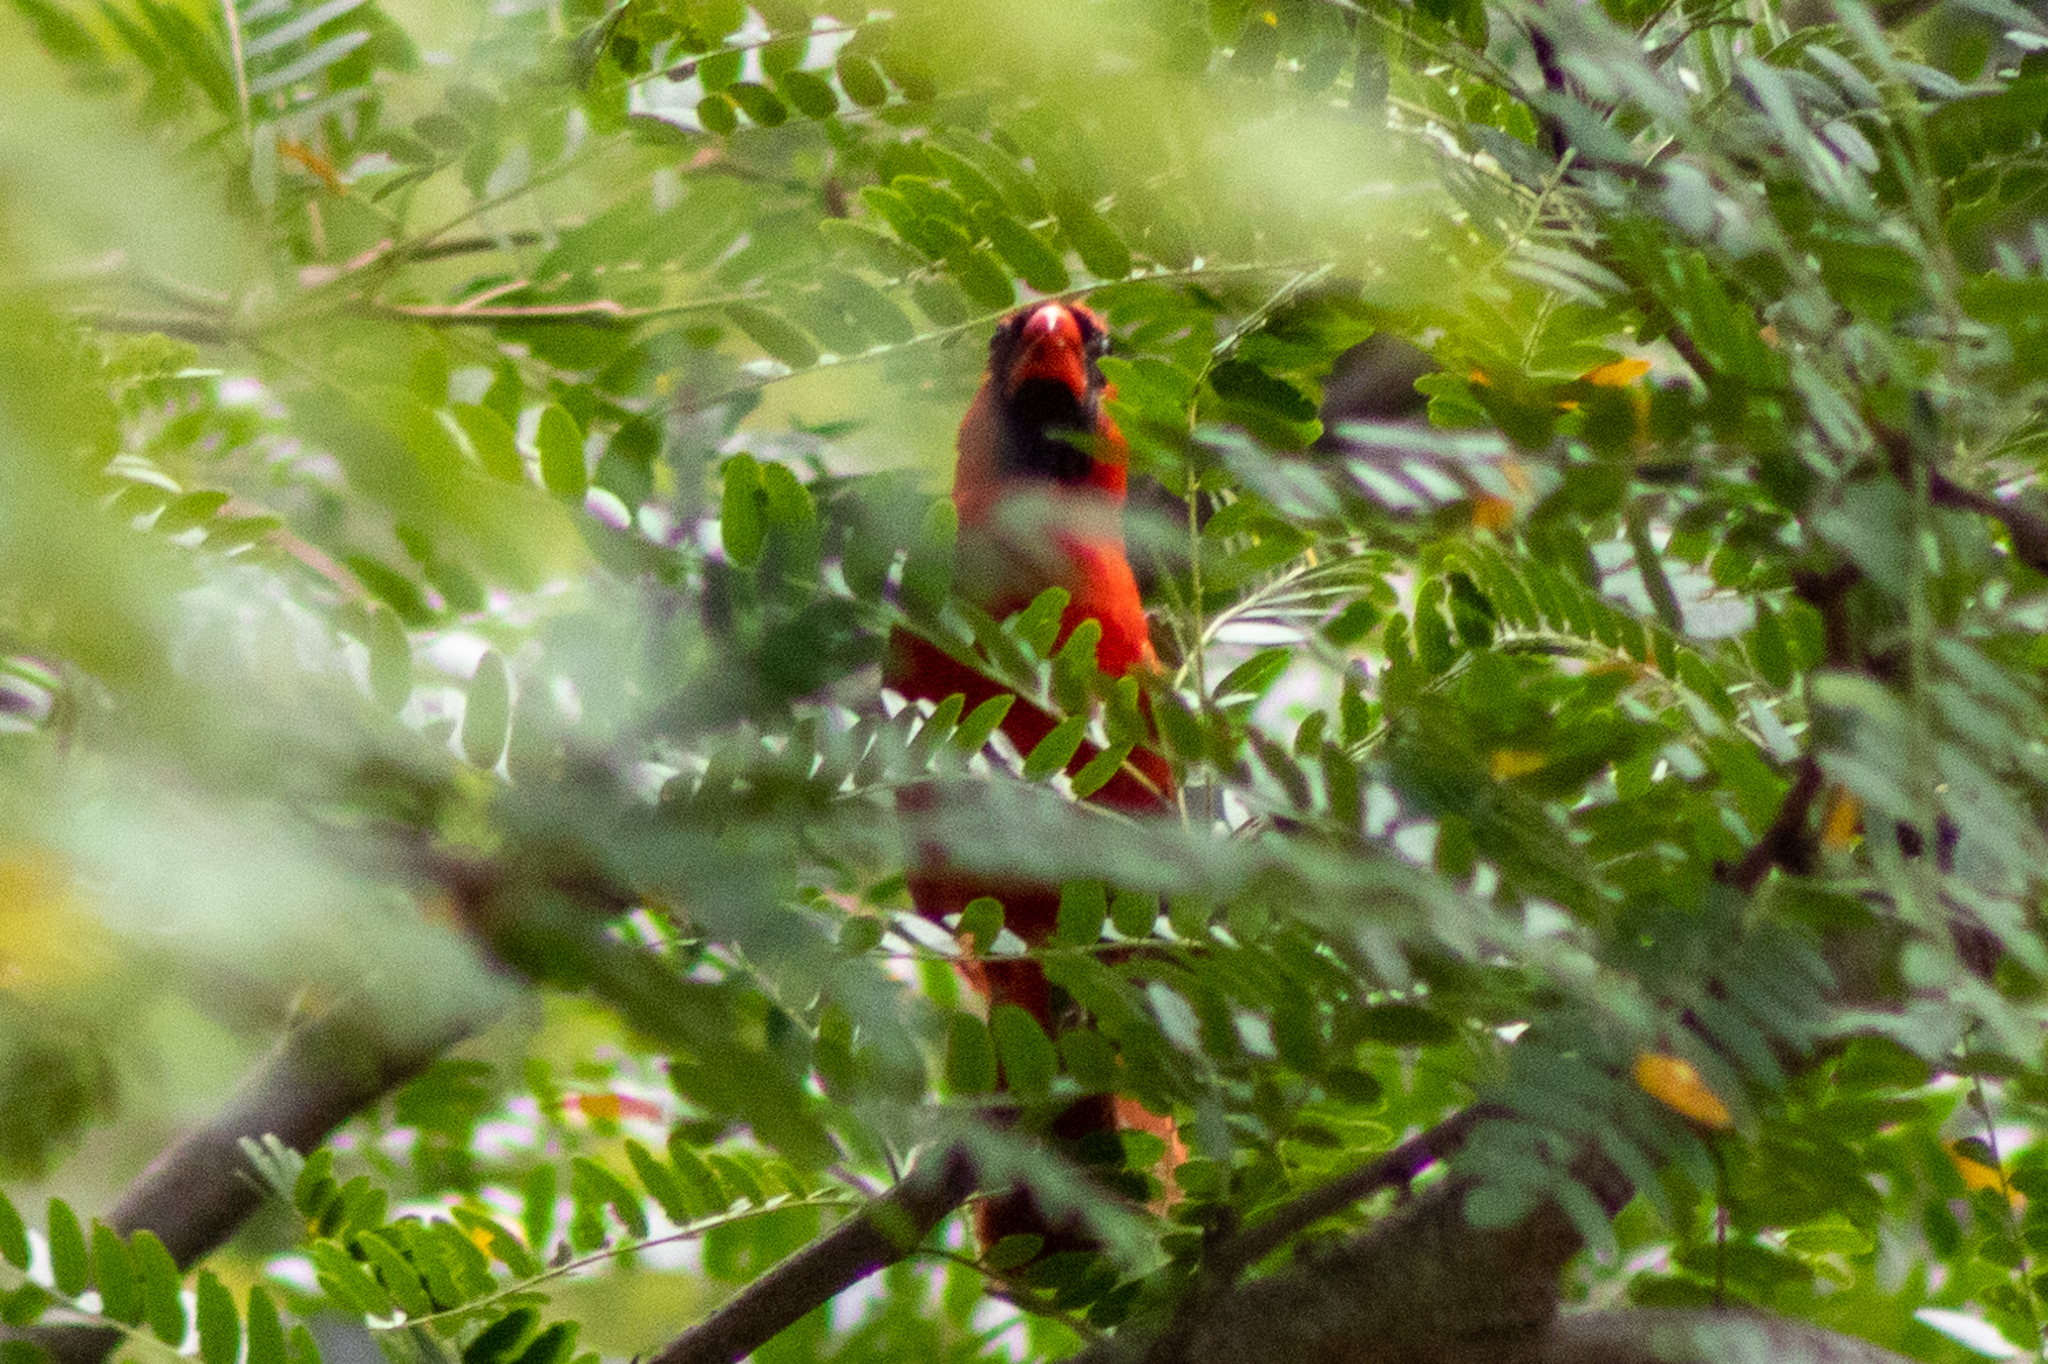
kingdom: Animalia
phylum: Chordata
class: Aves
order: Passeriformes
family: Cardinalidae
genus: Cardinalis
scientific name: Cardinalis cardinalis
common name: Northern cardinal
